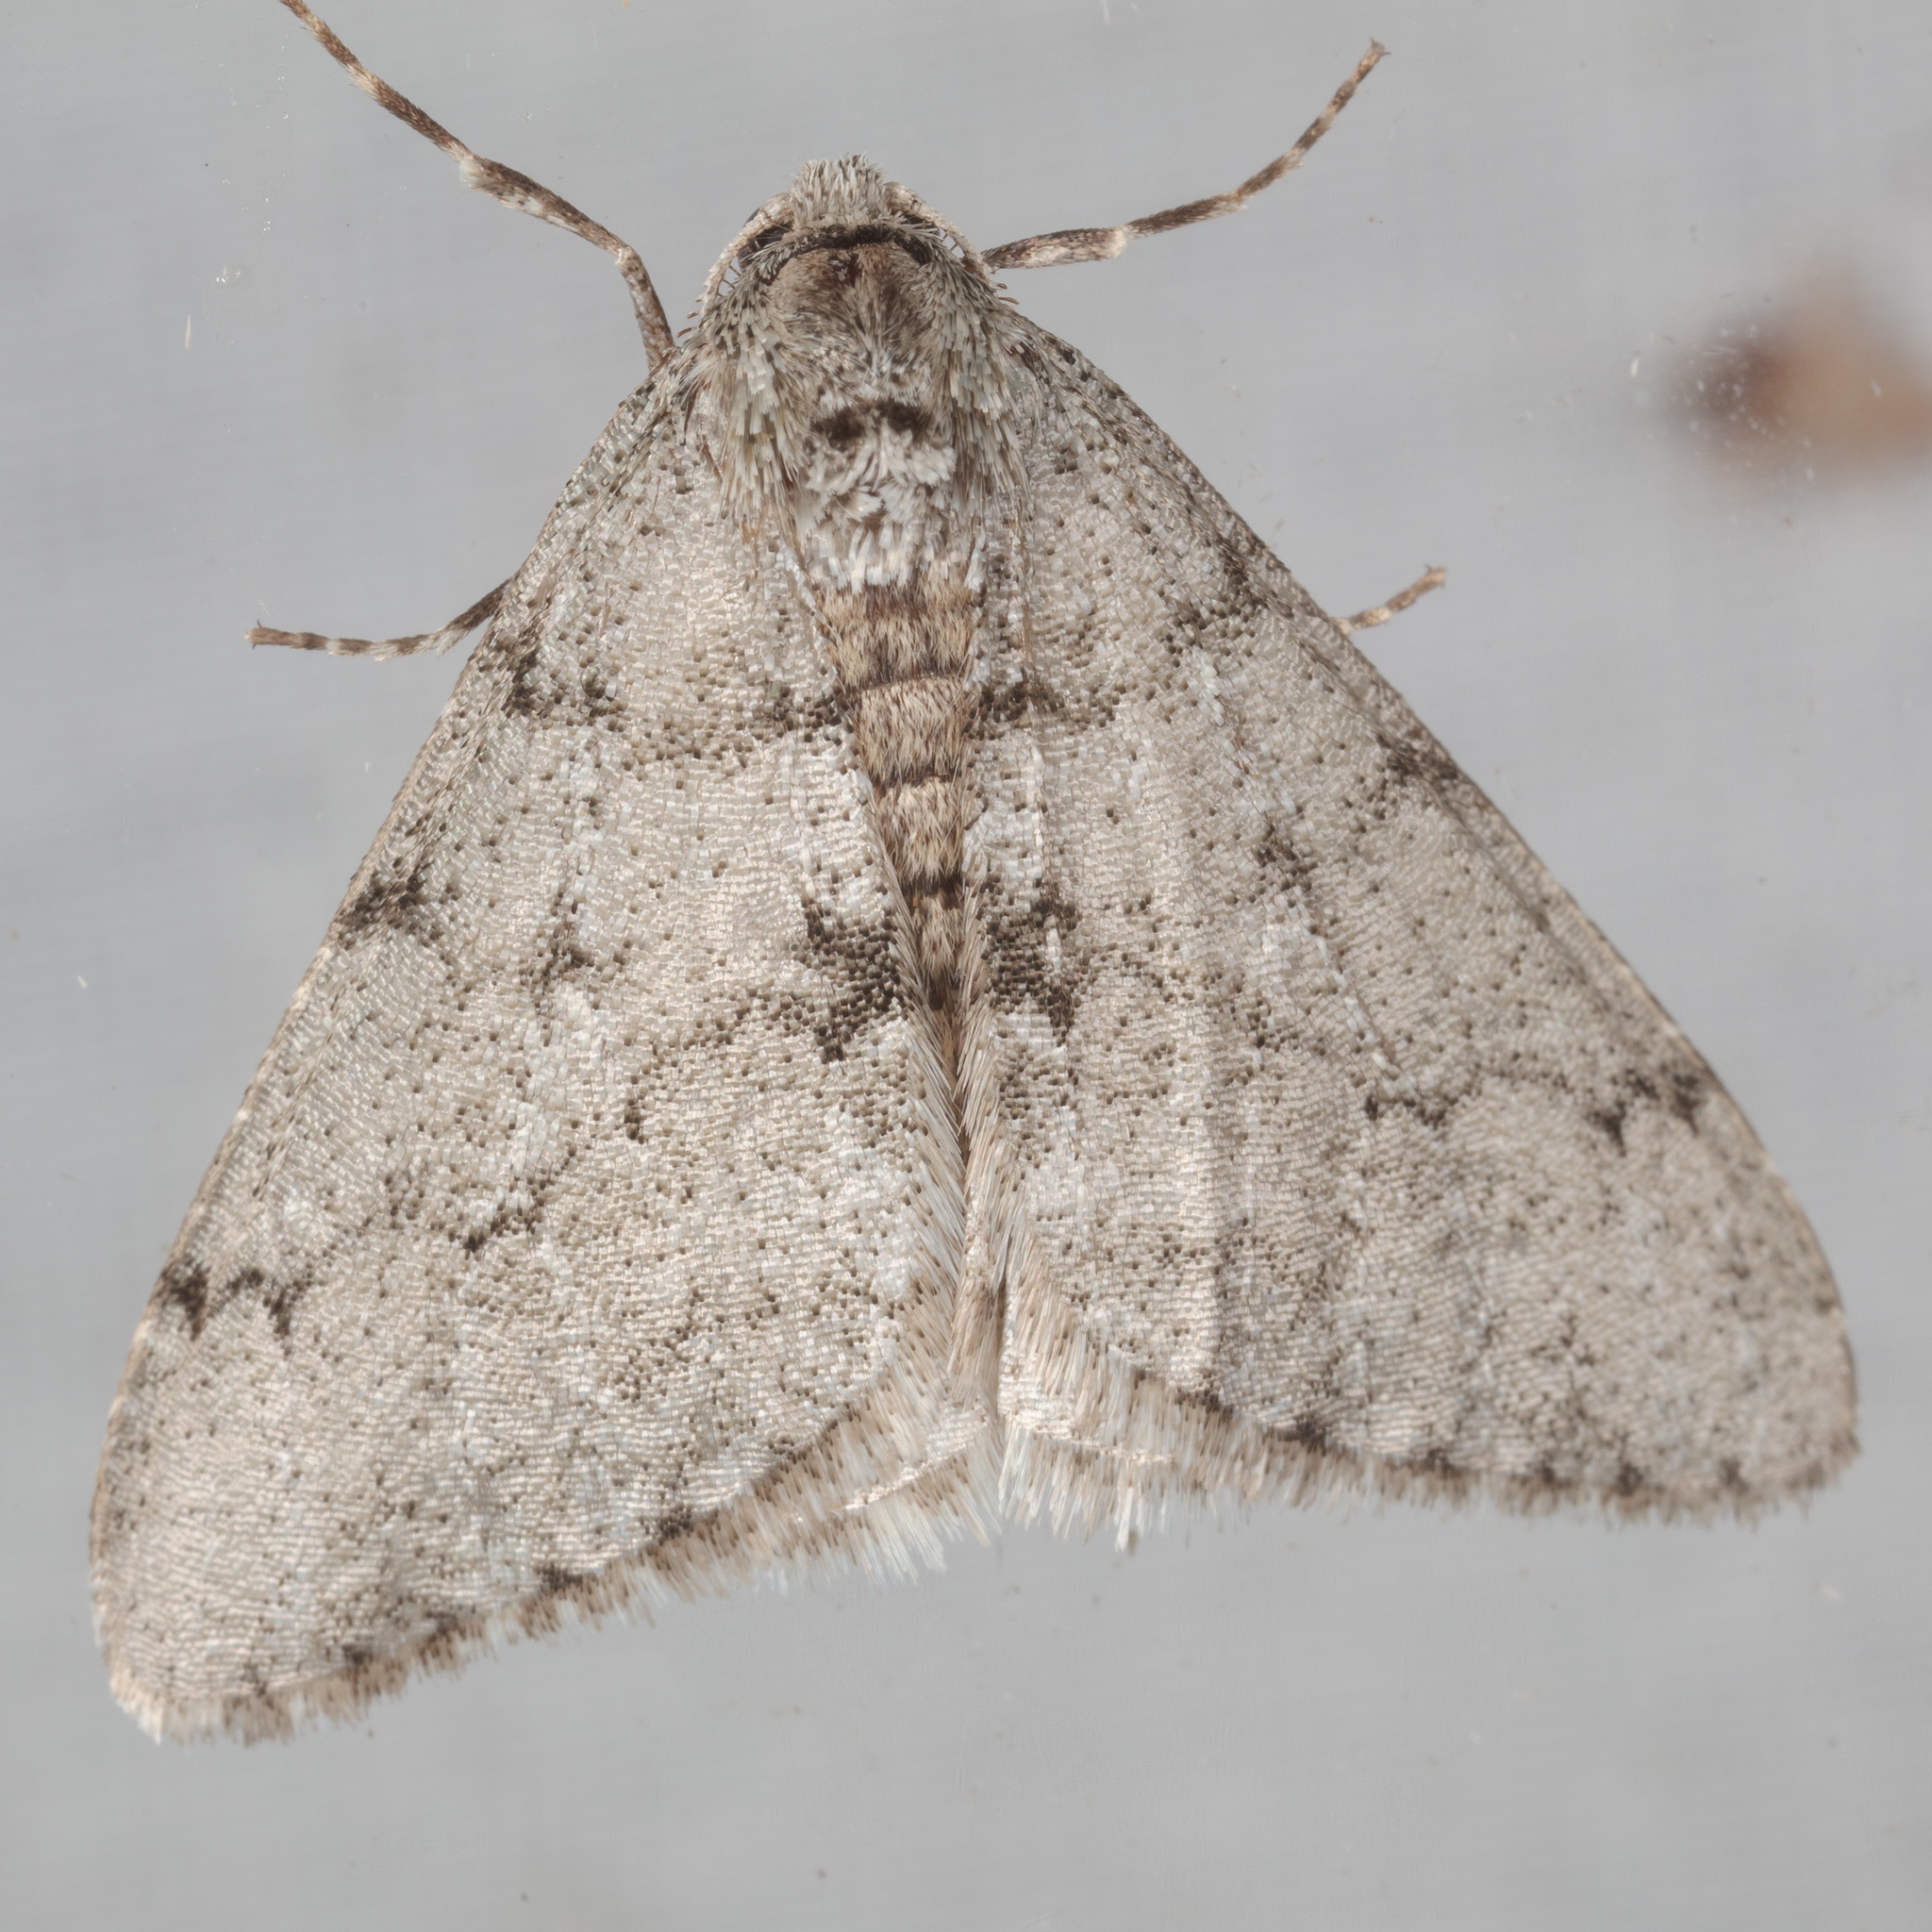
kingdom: Animalia
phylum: Arthropoda
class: Insecta
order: Lepidoptera
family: Geometridae
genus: Phigalia
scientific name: Phigalia strigataria
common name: Small phigalia
